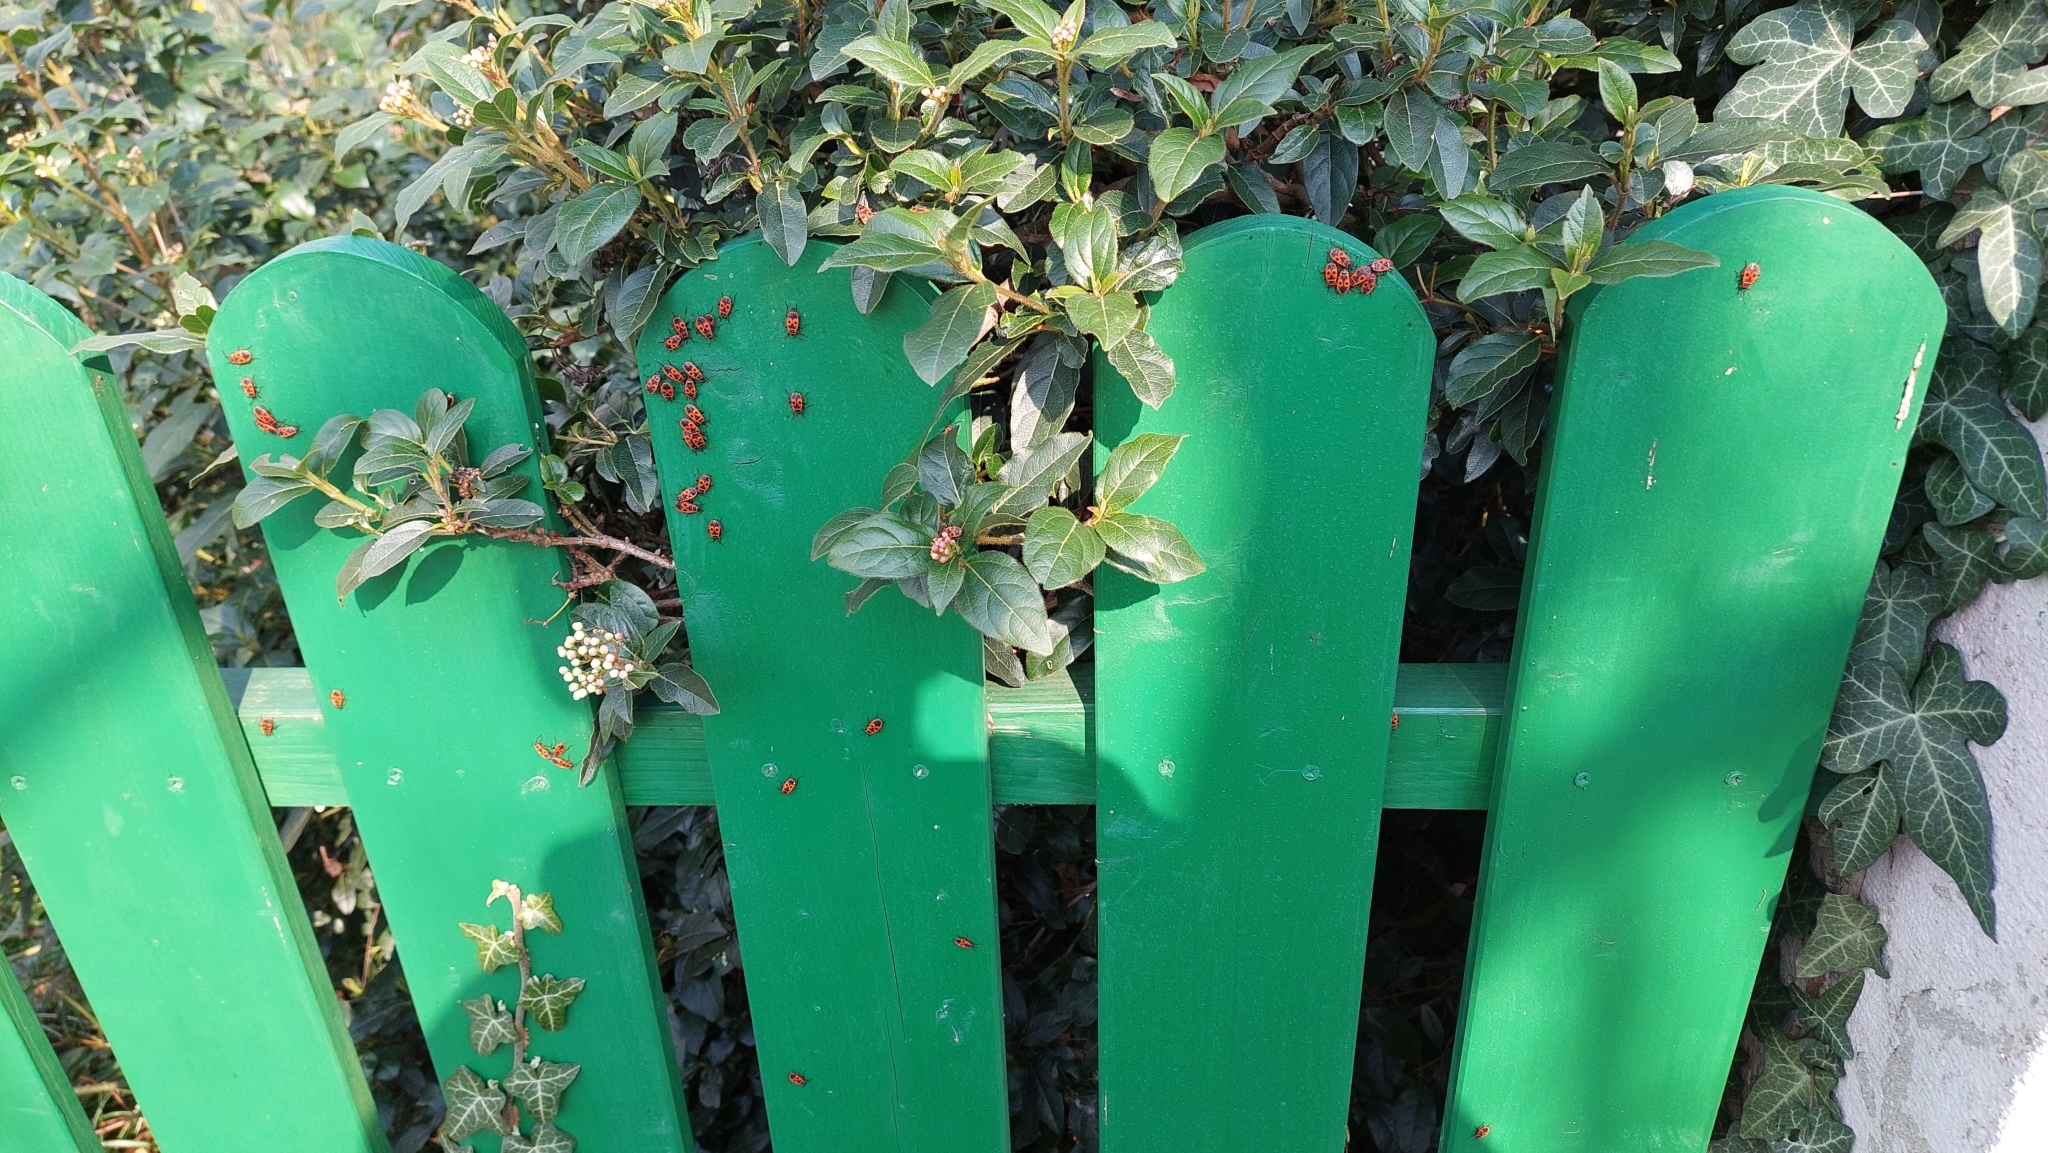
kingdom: Animalia
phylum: Arthropoda
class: Insecta
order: Hemiptera
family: Pyrrhocoridae
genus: Pyrrhocoris
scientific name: Pyrrhocoris apterus
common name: Firebug
